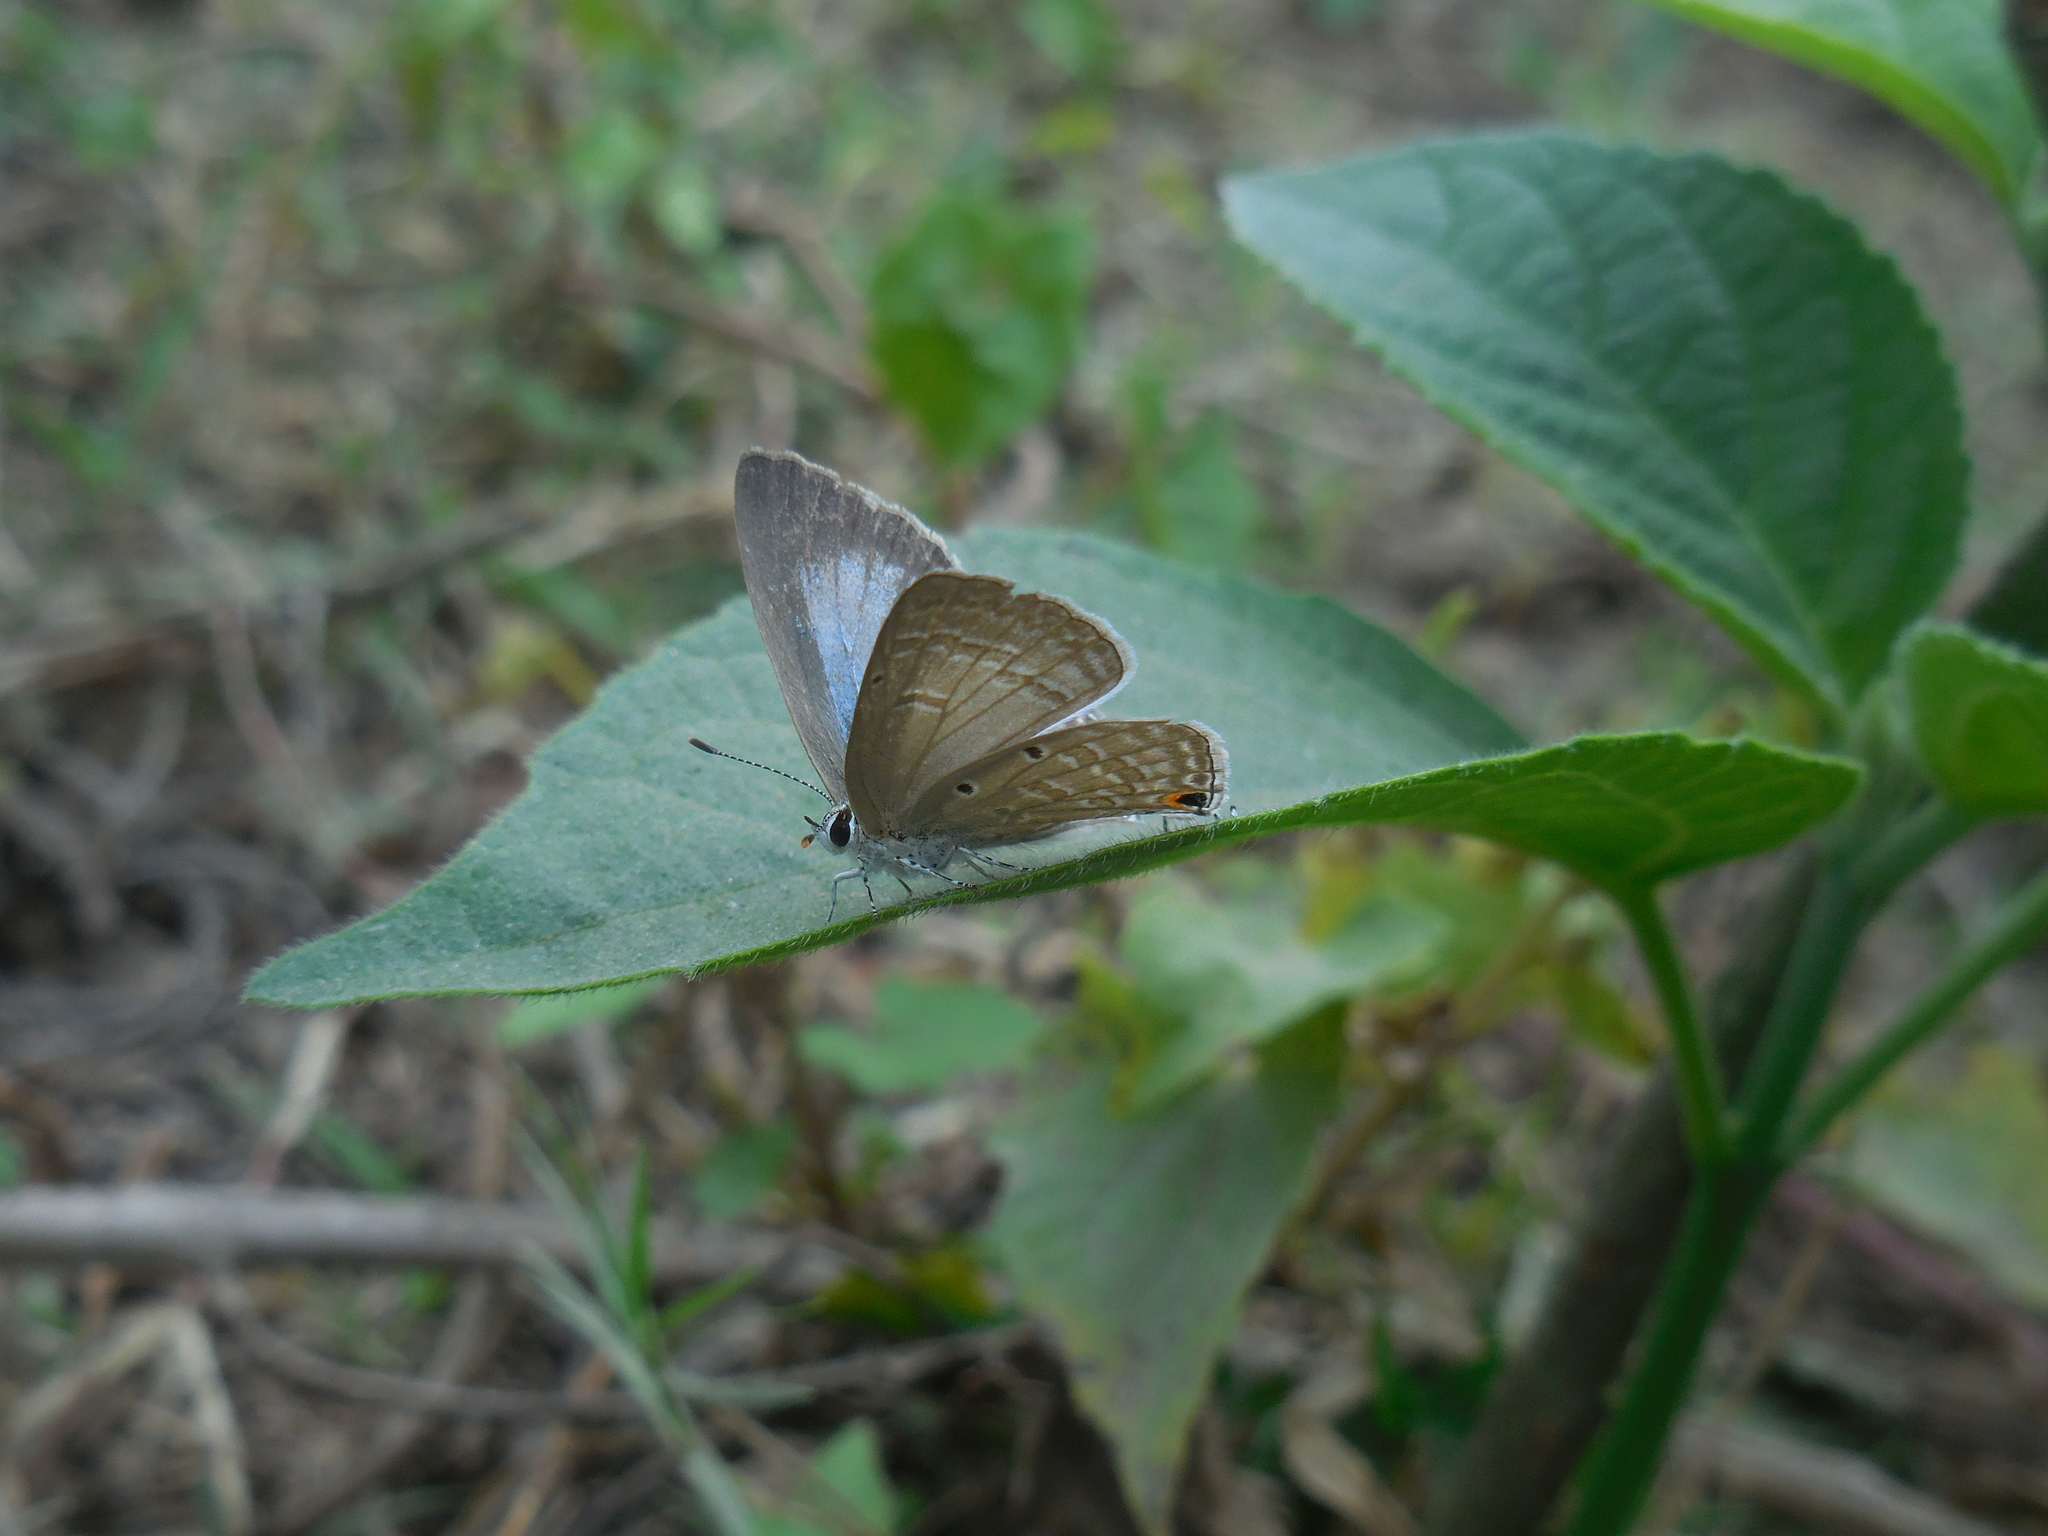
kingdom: Animalia
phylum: Arthropoda
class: Insecta
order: Lepidoptera
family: Lycaenidae
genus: Euchrysops
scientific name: Euchrysops cnejus
